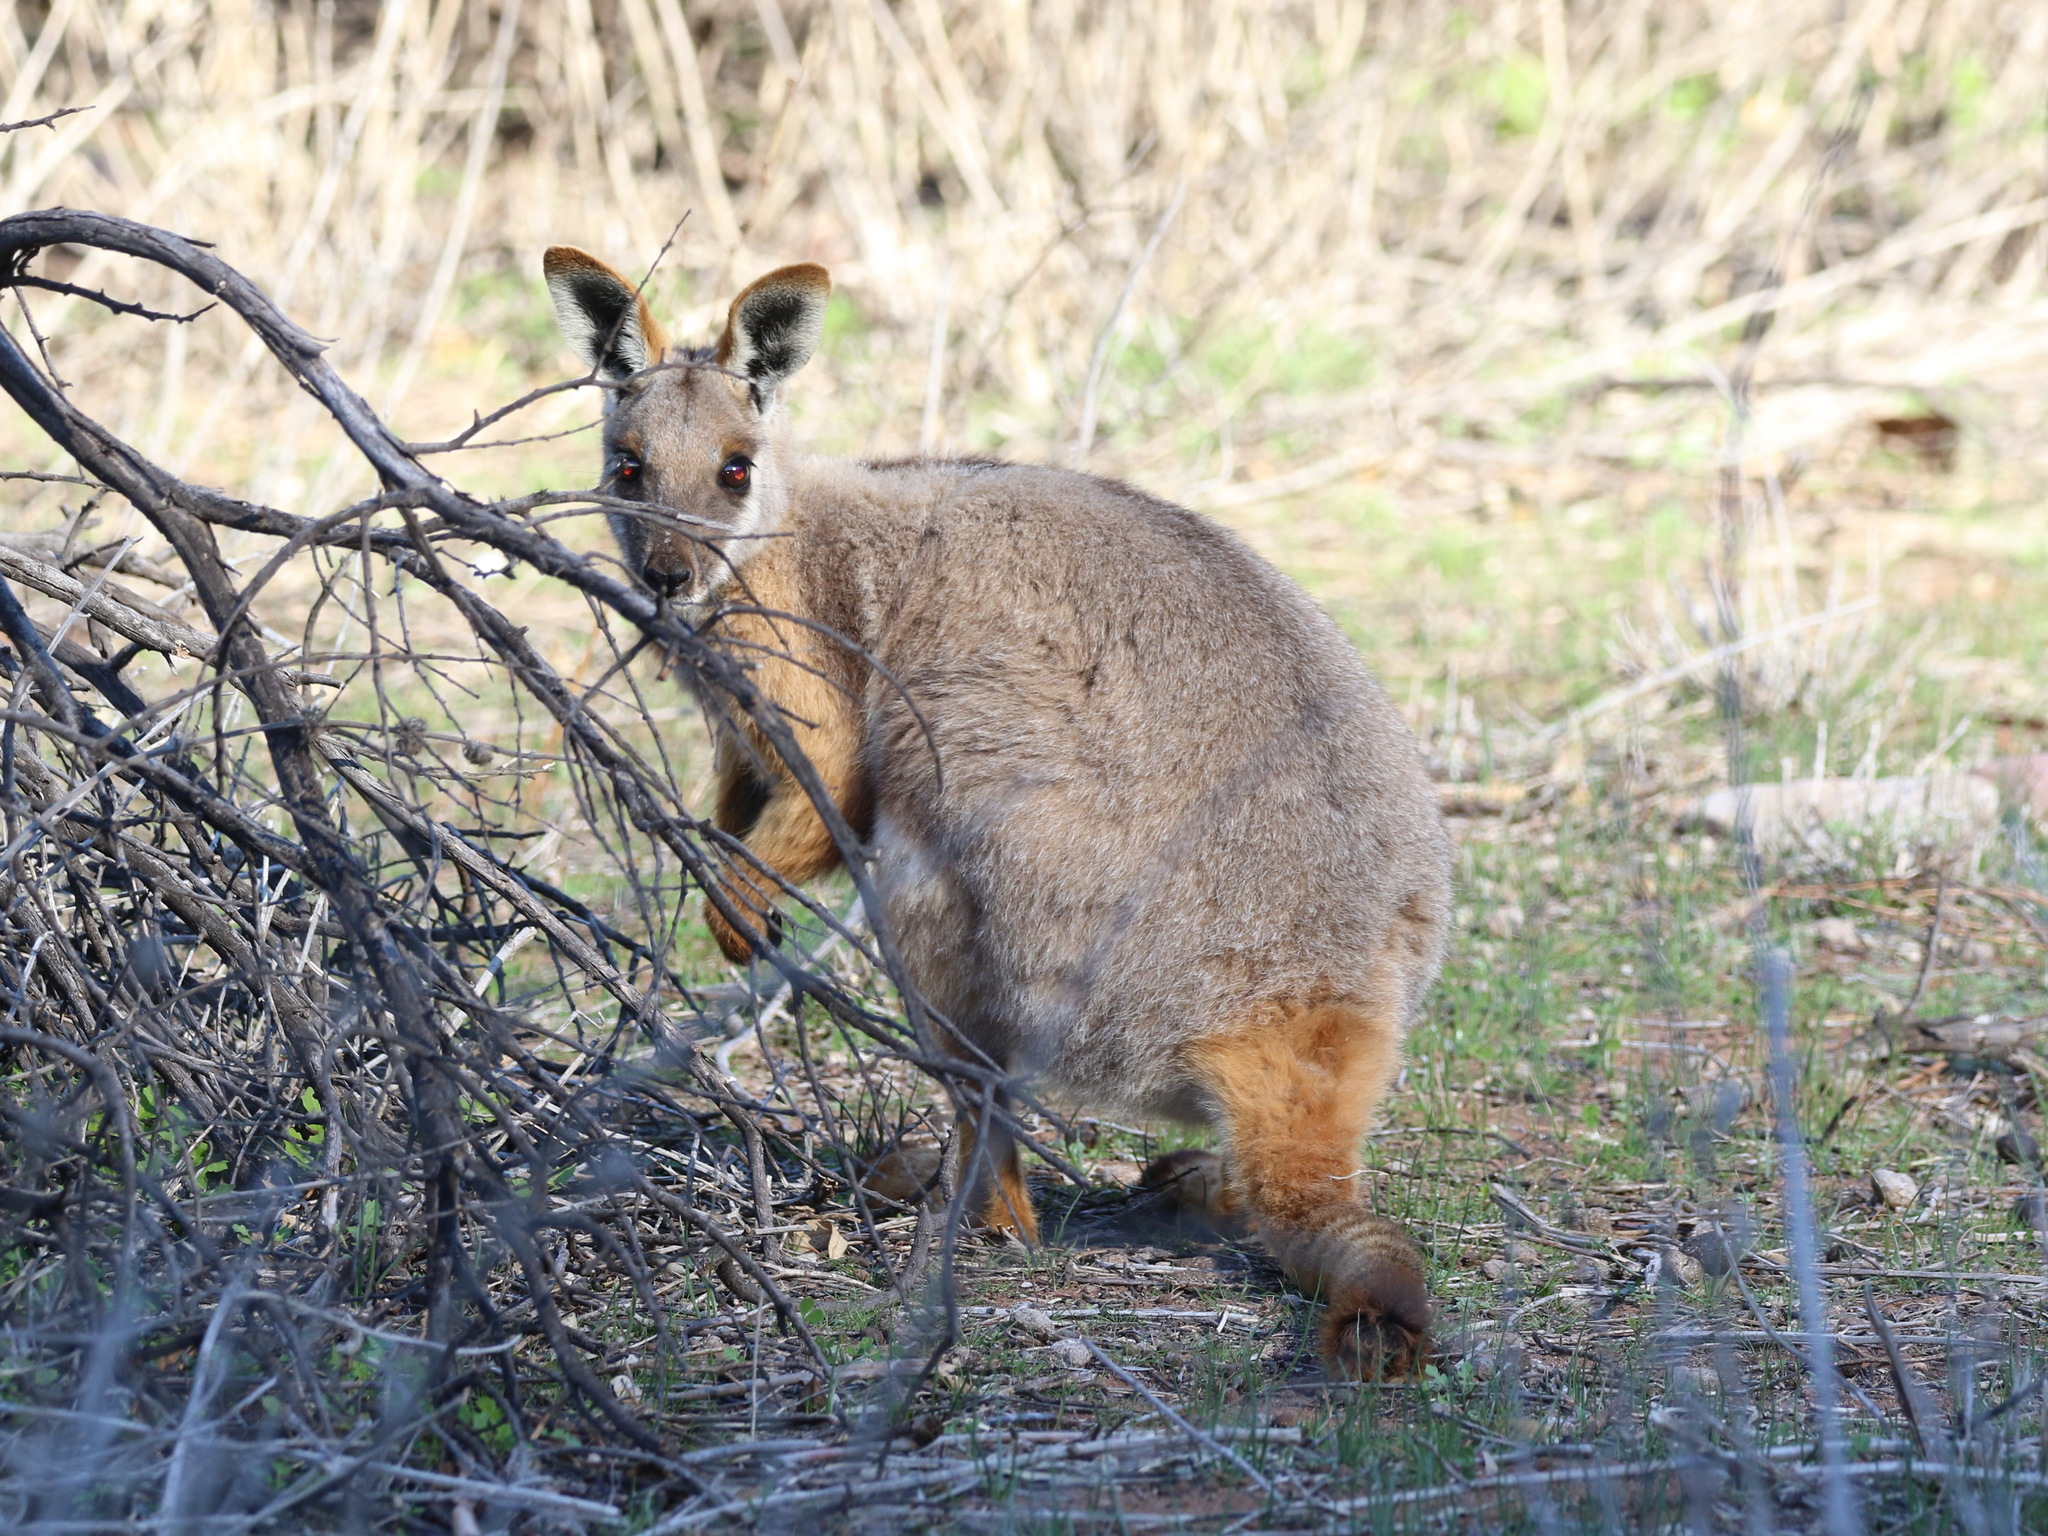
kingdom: Animalia
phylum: Chordata
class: Mammalia
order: Diprotodontia
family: Macropodidae
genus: Petrogale
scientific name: Petrogale xanthopus
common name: Yellow-footed rock-wallaby
